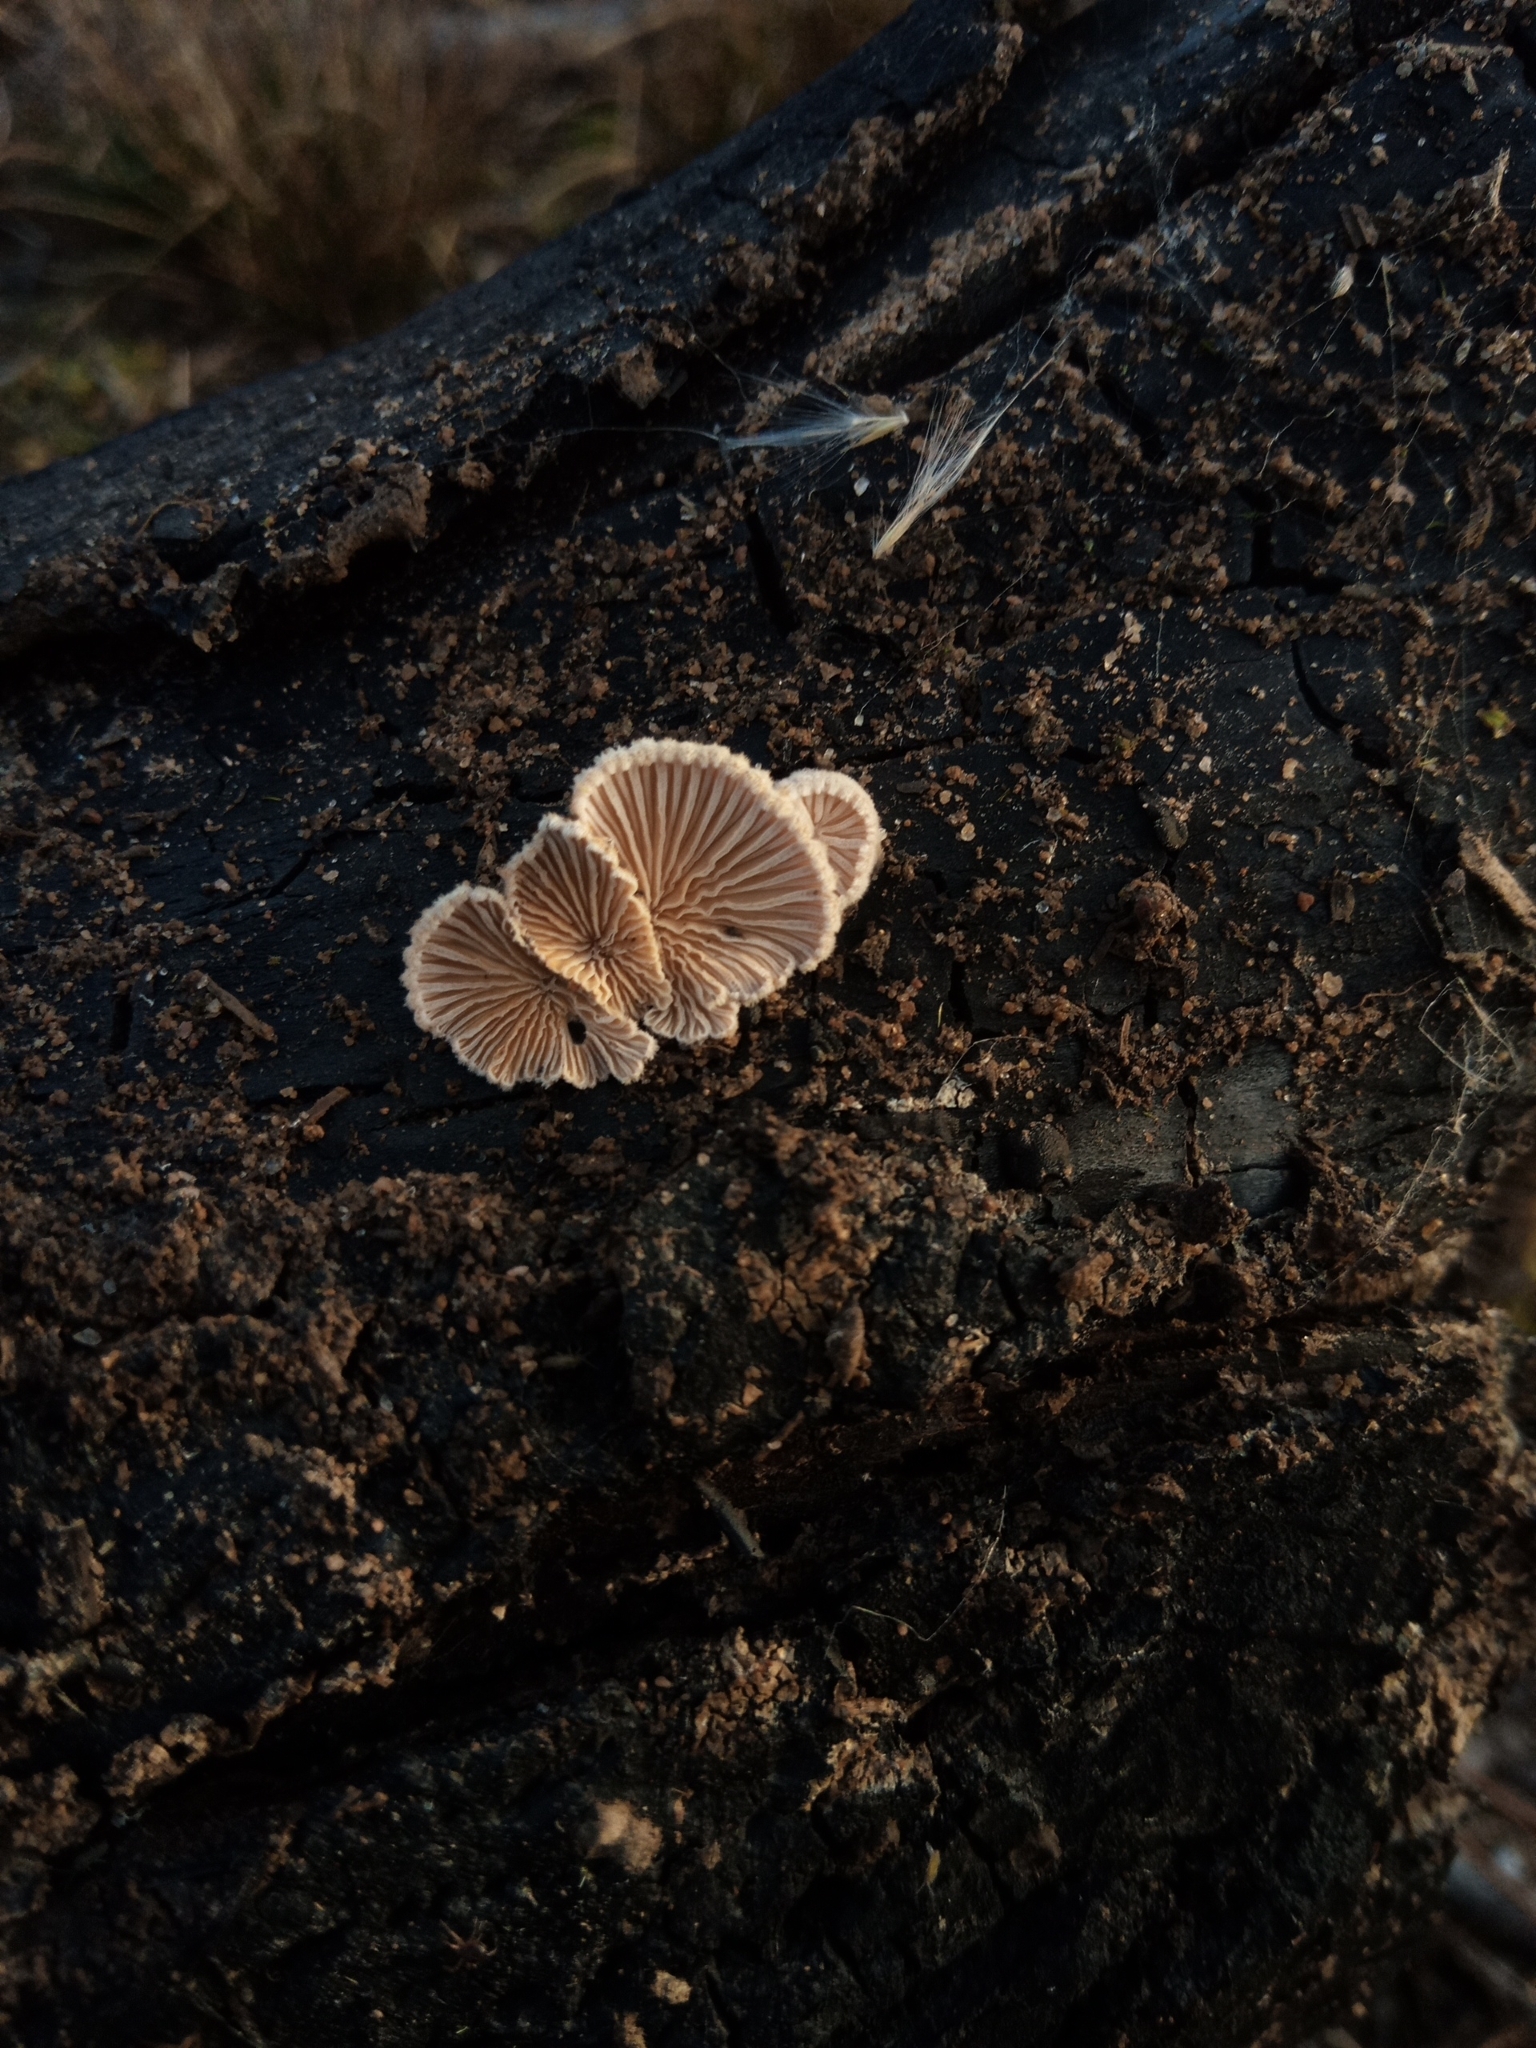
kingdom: Fungi
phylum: Basidiomycota
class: Agaricomycetes
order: Agaricales
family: Schizophyllaceae
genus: Schizophyllum
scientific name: Schizophyllum commune
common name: Common porecrust
